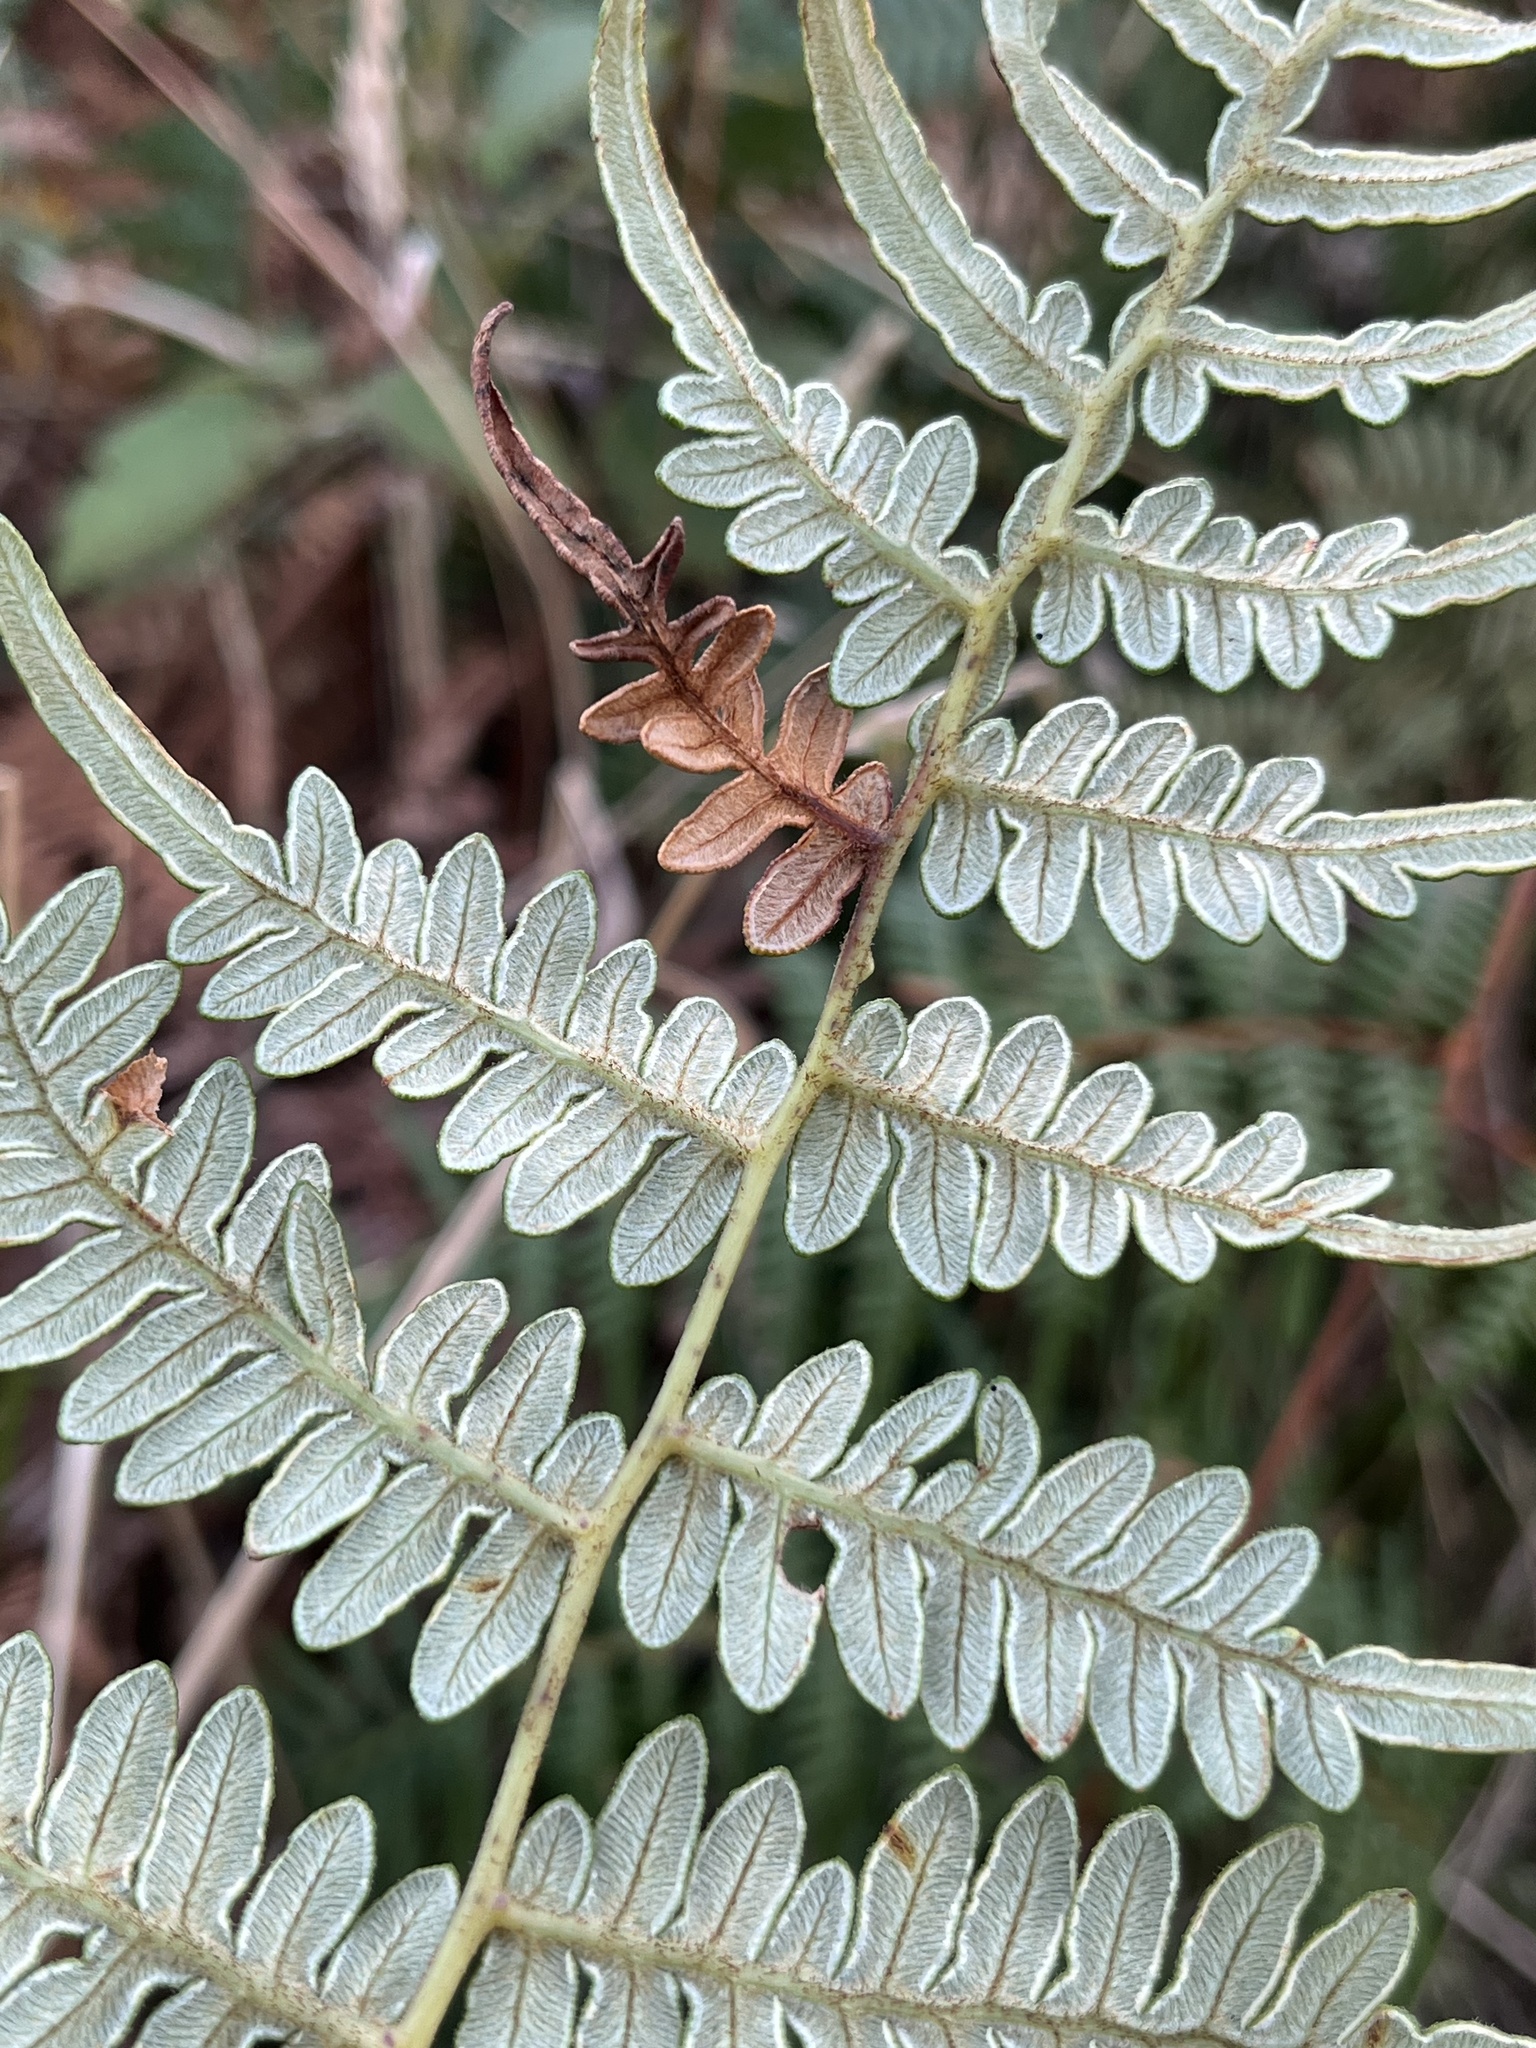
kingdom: Plantae
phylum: Tracheophyta
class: Polypodiopsida
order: Polypodiales
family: Dennstaedtiaceae
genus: Pteridium
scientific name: Pteridium esculentum
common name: Bracken fern
